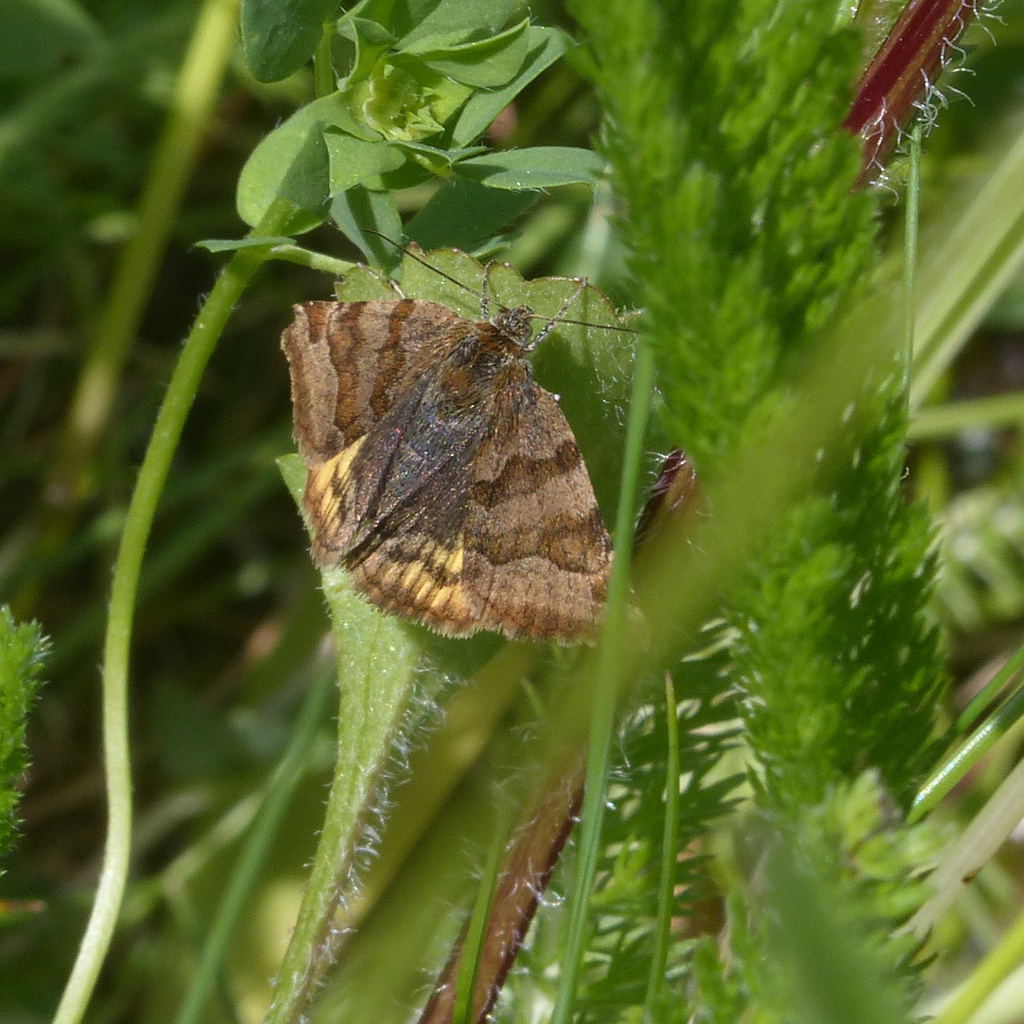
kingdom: Animalia
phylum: Arthropoda
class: Insecta
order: Lepidoptera
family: Erebidae
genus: Euclidia
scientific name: Euclidia glyphica
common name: Burnet companion
